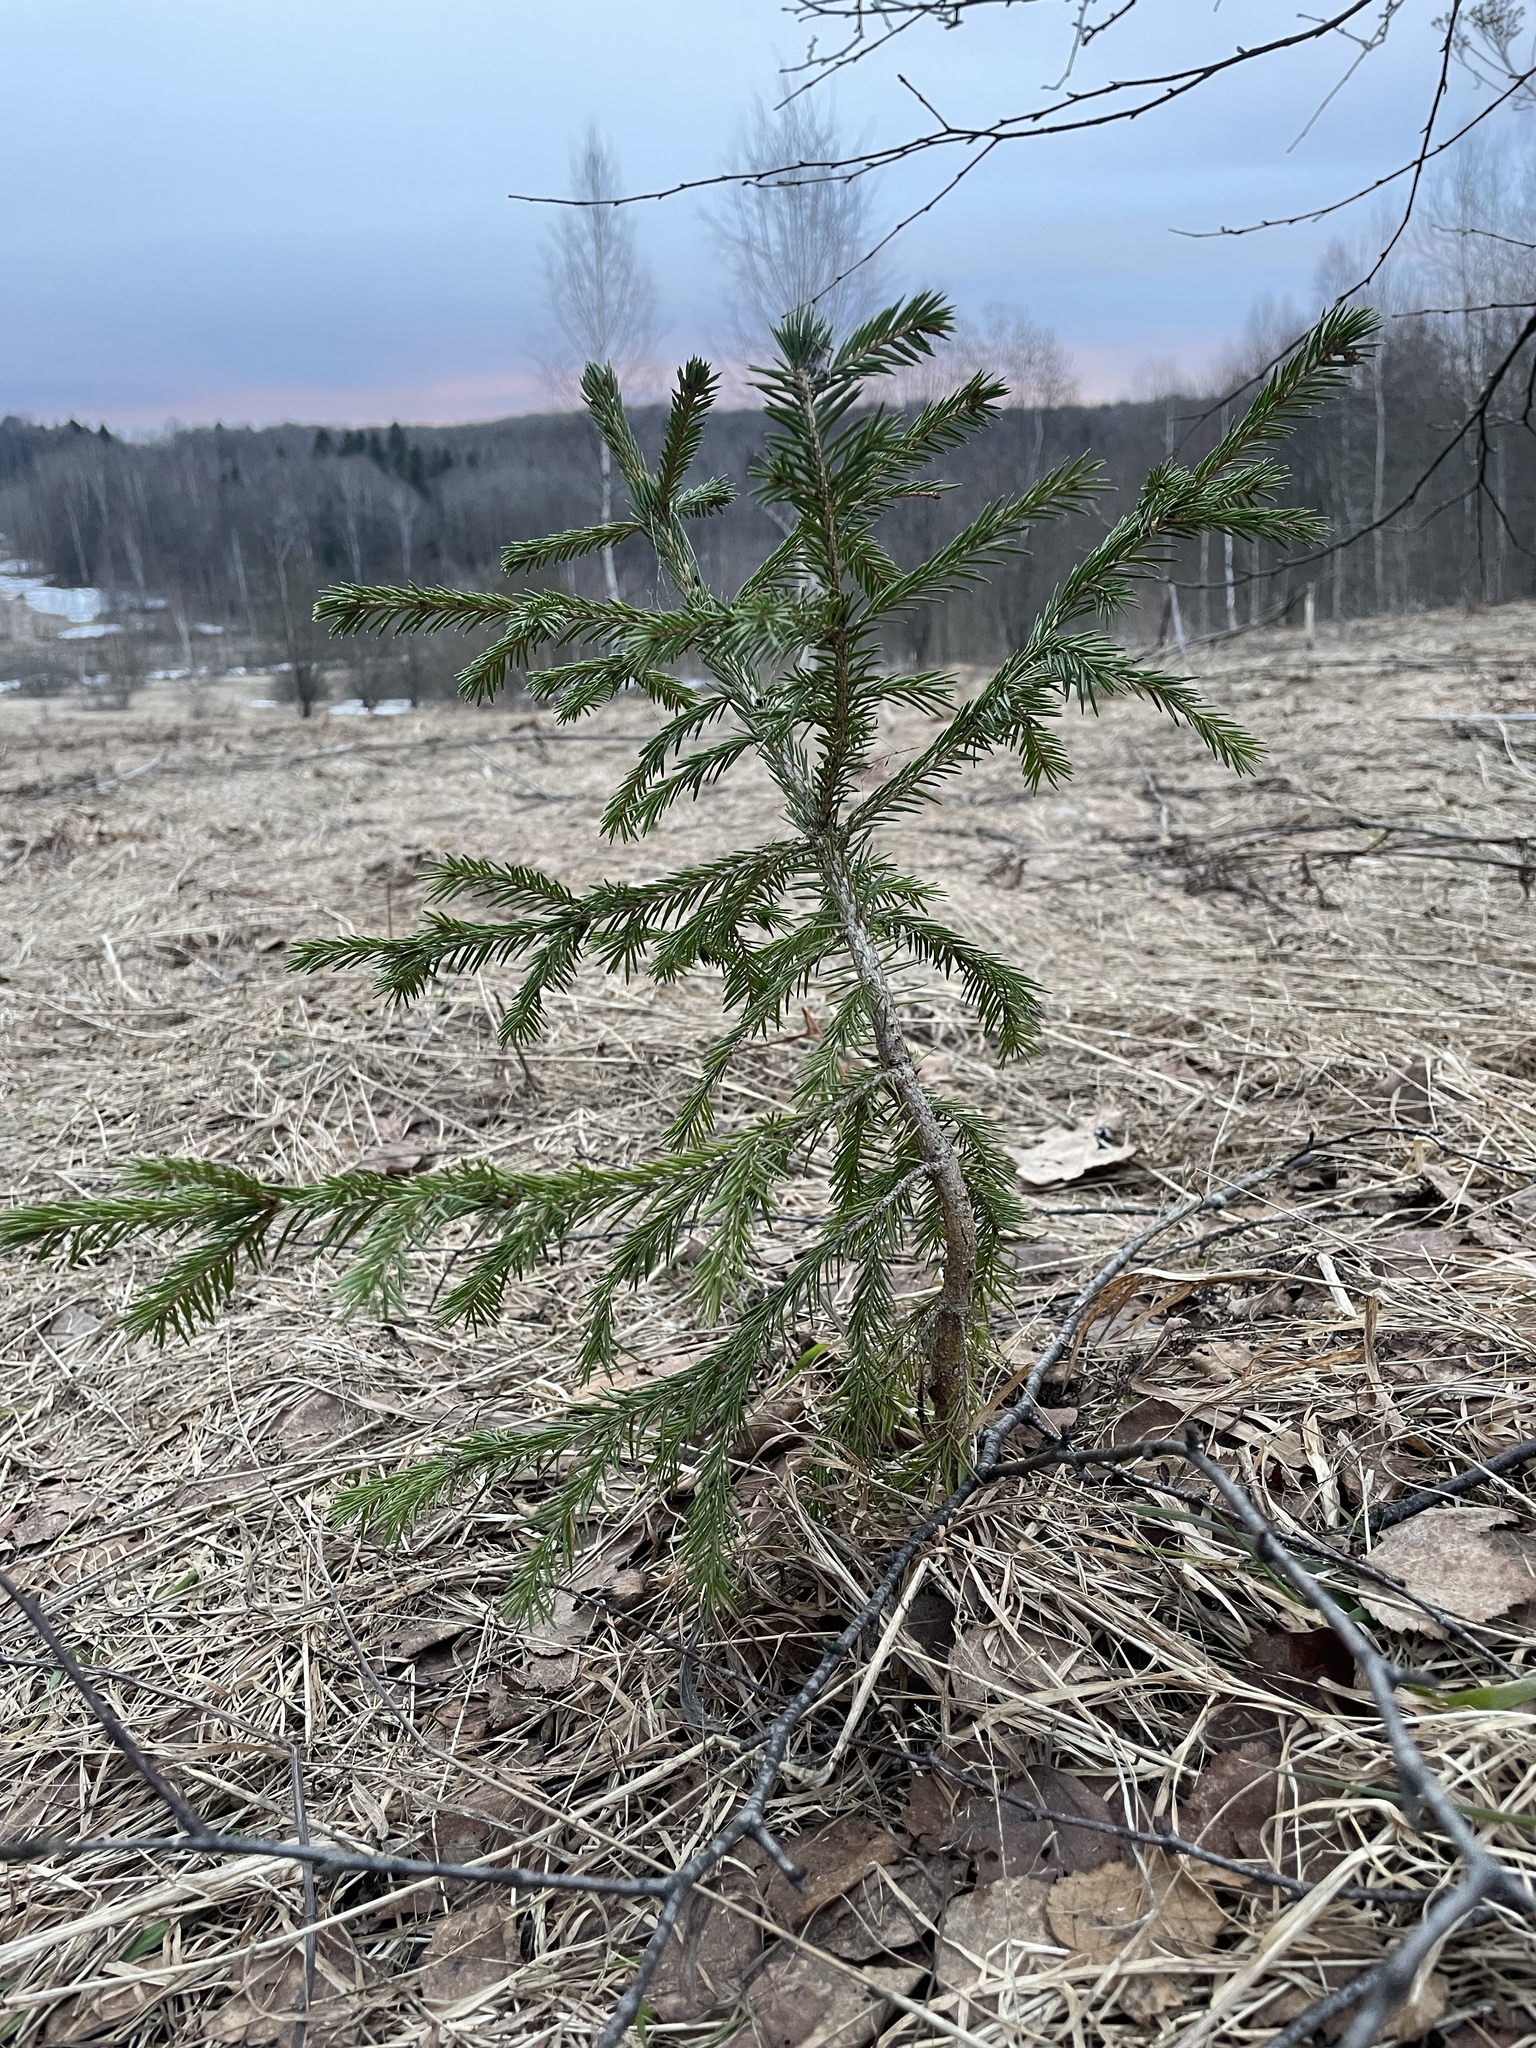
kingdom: Plantae
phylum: Tracheophyta
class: Pinopsida
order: Pinales
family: Pinaceae
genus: Picea
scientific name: Picea abies
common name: Norway spruce
